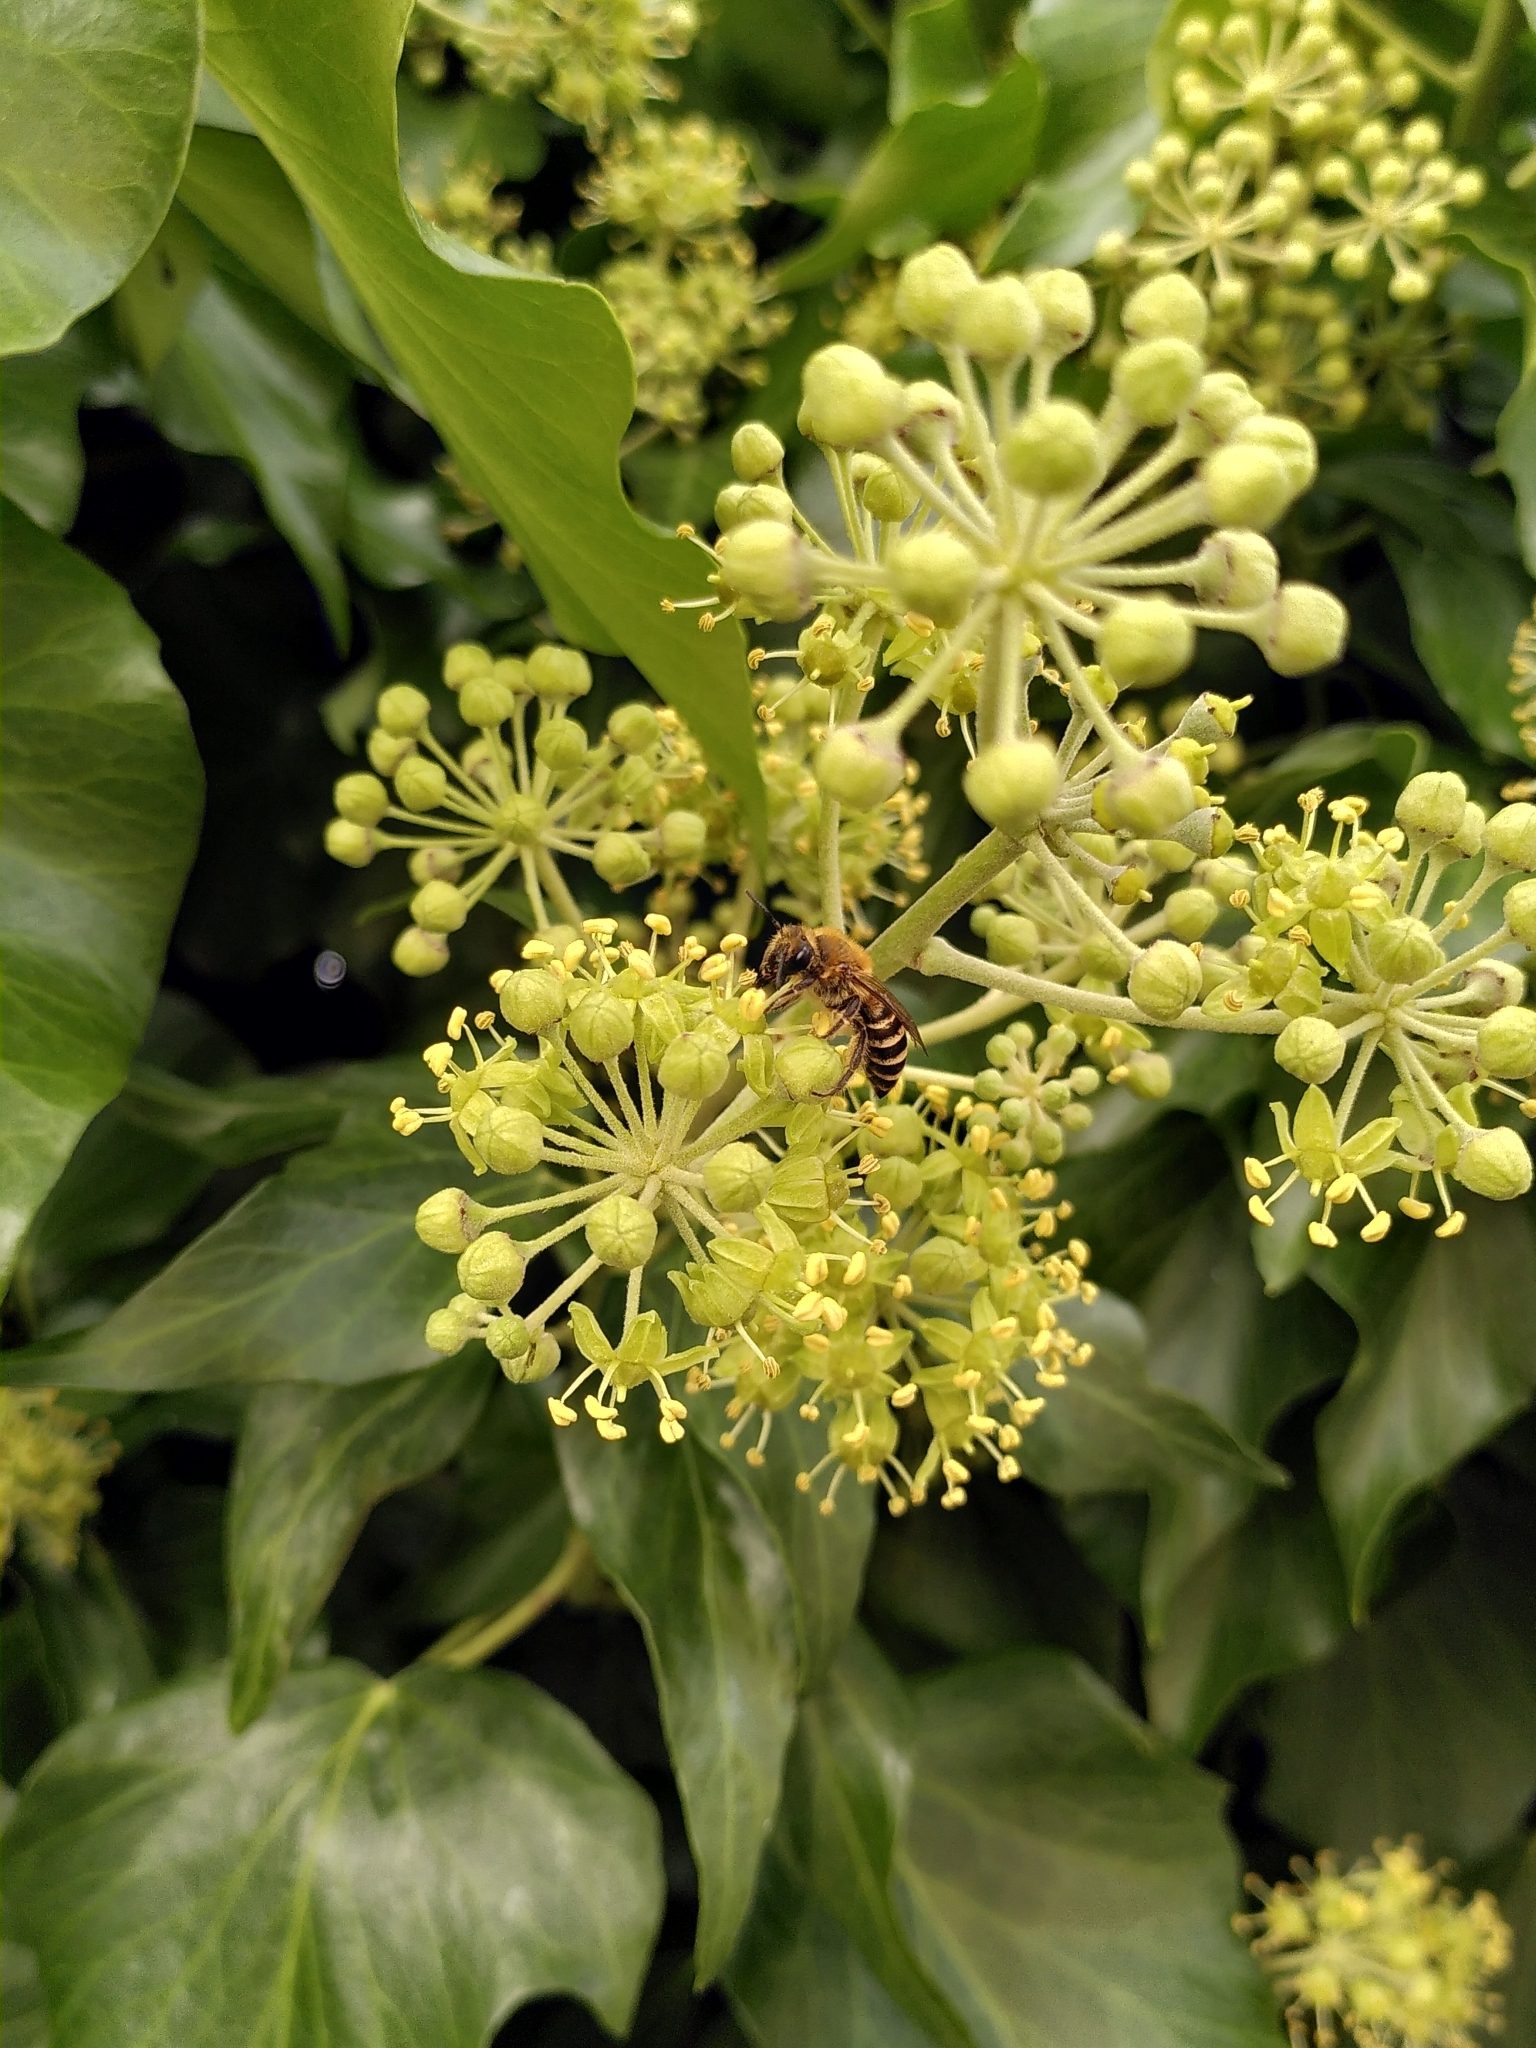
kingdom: Animalia
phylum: Arthropoda
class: Insecta
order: Hymenoptera
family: Colletidae
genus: Colletes
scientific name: Colletes hederae
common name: Ivy bee
